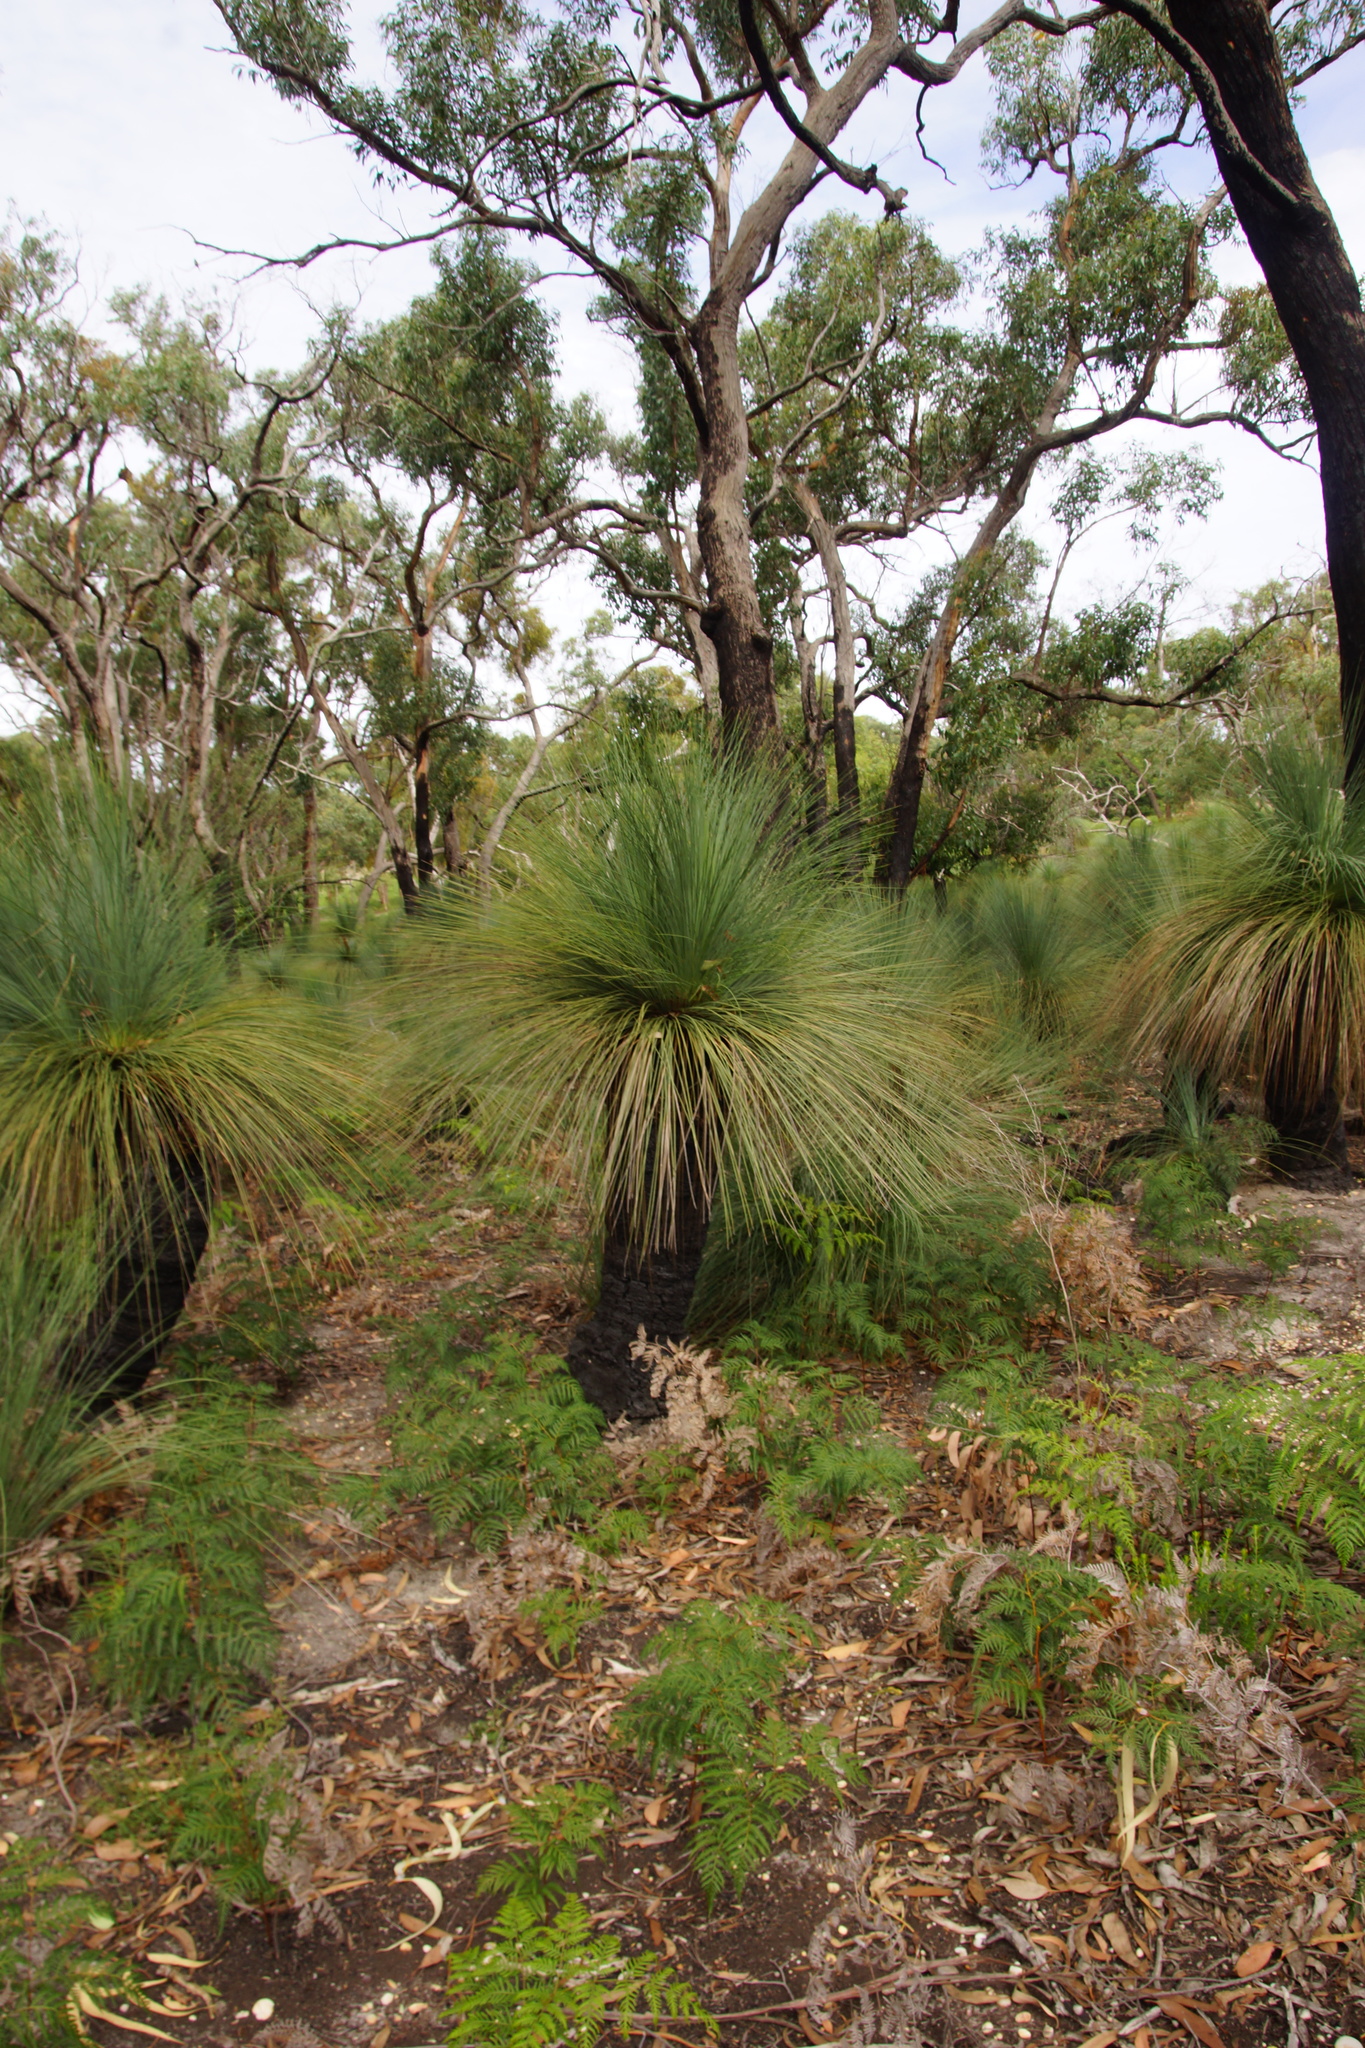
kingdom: Plantae
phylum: Tracheophyta
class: Liliopsida
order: Asparagales
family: Asphodelaceae
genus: Xanthorrhoea
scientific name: Xanthorrhoea australis
